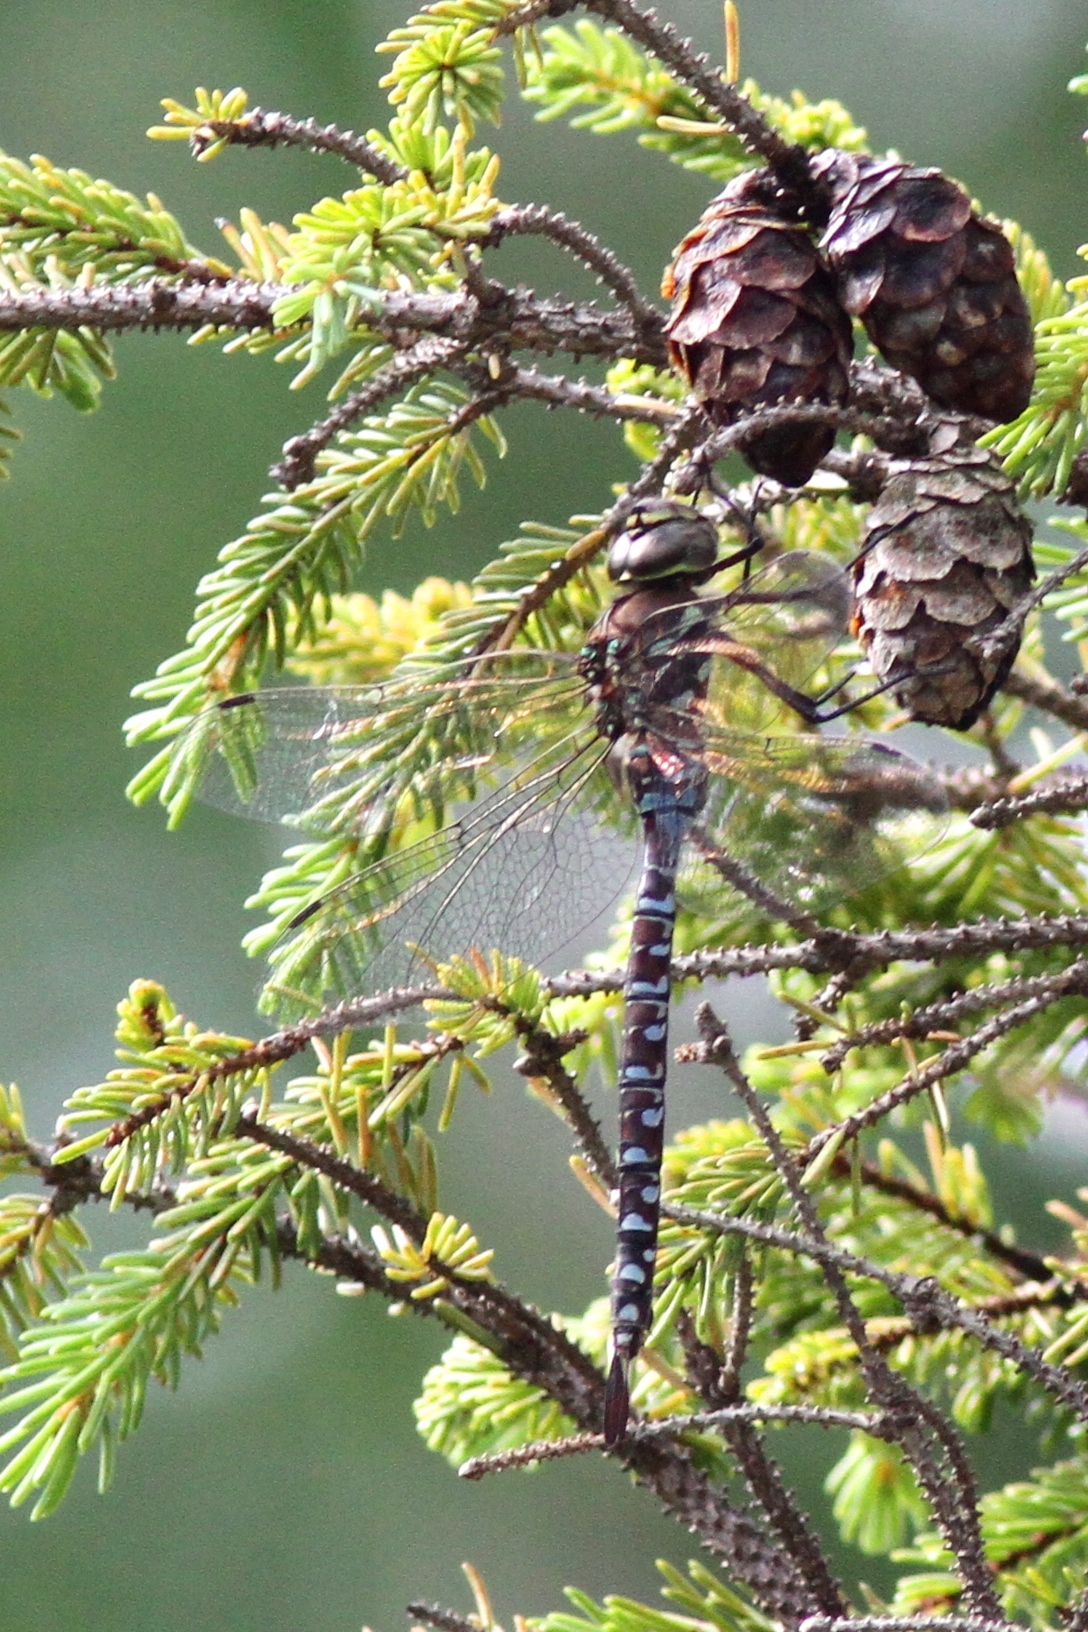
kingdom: Animalia
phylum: Arthropoda
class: Insecta
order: Odonata
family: Aeshnidae
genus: Aeshna
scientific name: Aeshna interrupta
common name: Variable darner
